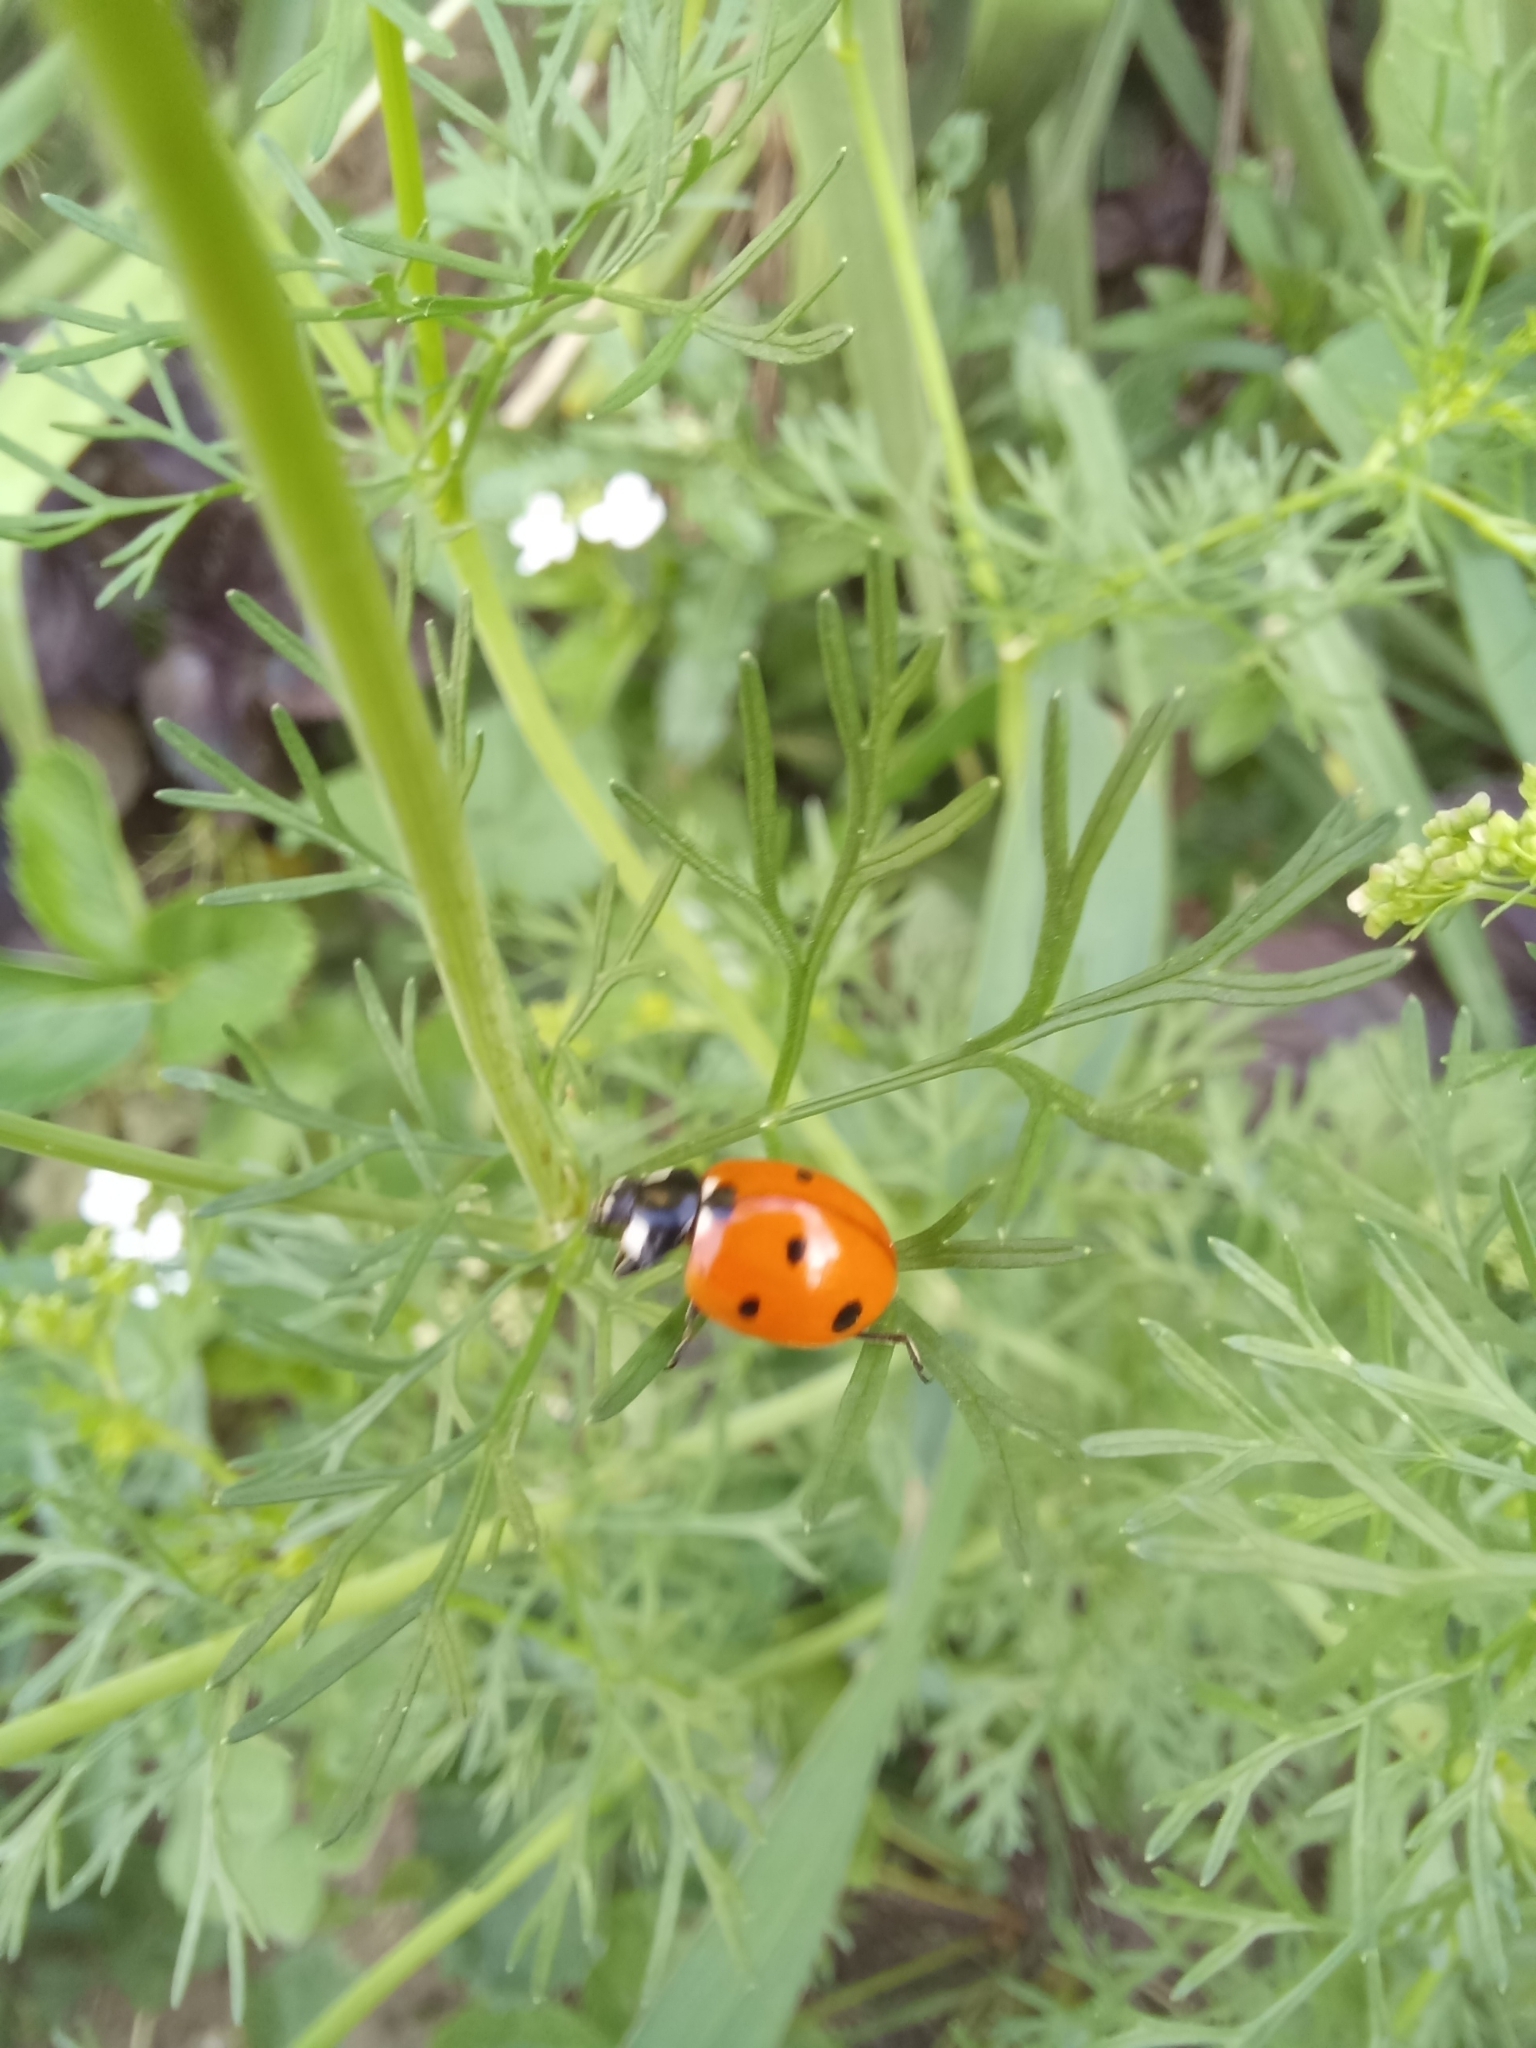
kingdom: Animalia
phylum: Arthropoda
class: Insecta
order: Coleoptera
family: Coccinellidae
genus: Coccinella
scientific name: Coccinella septempunctata
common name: Sevenspotted lady beetle
